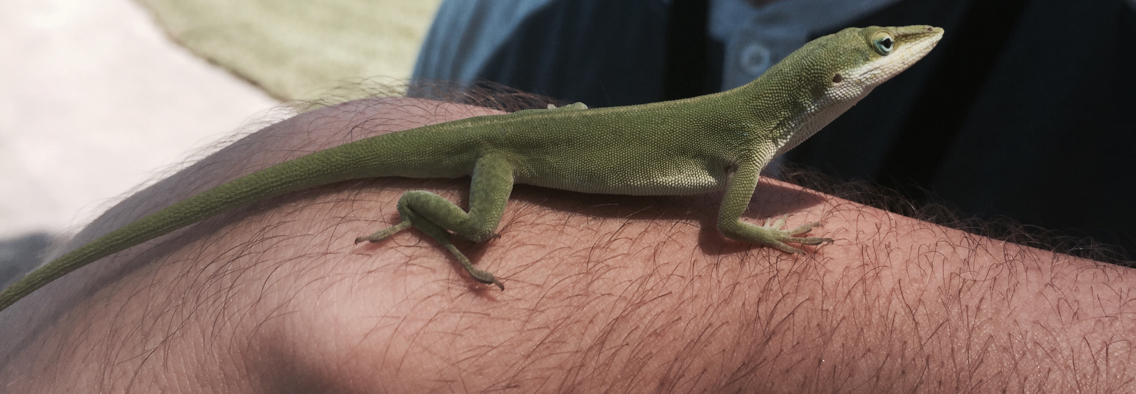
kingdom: Animalia
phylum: Chordata
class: Squamata
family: Dactyloidae
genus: Anolis
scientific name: Anolis carolinensis
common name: Green anole
